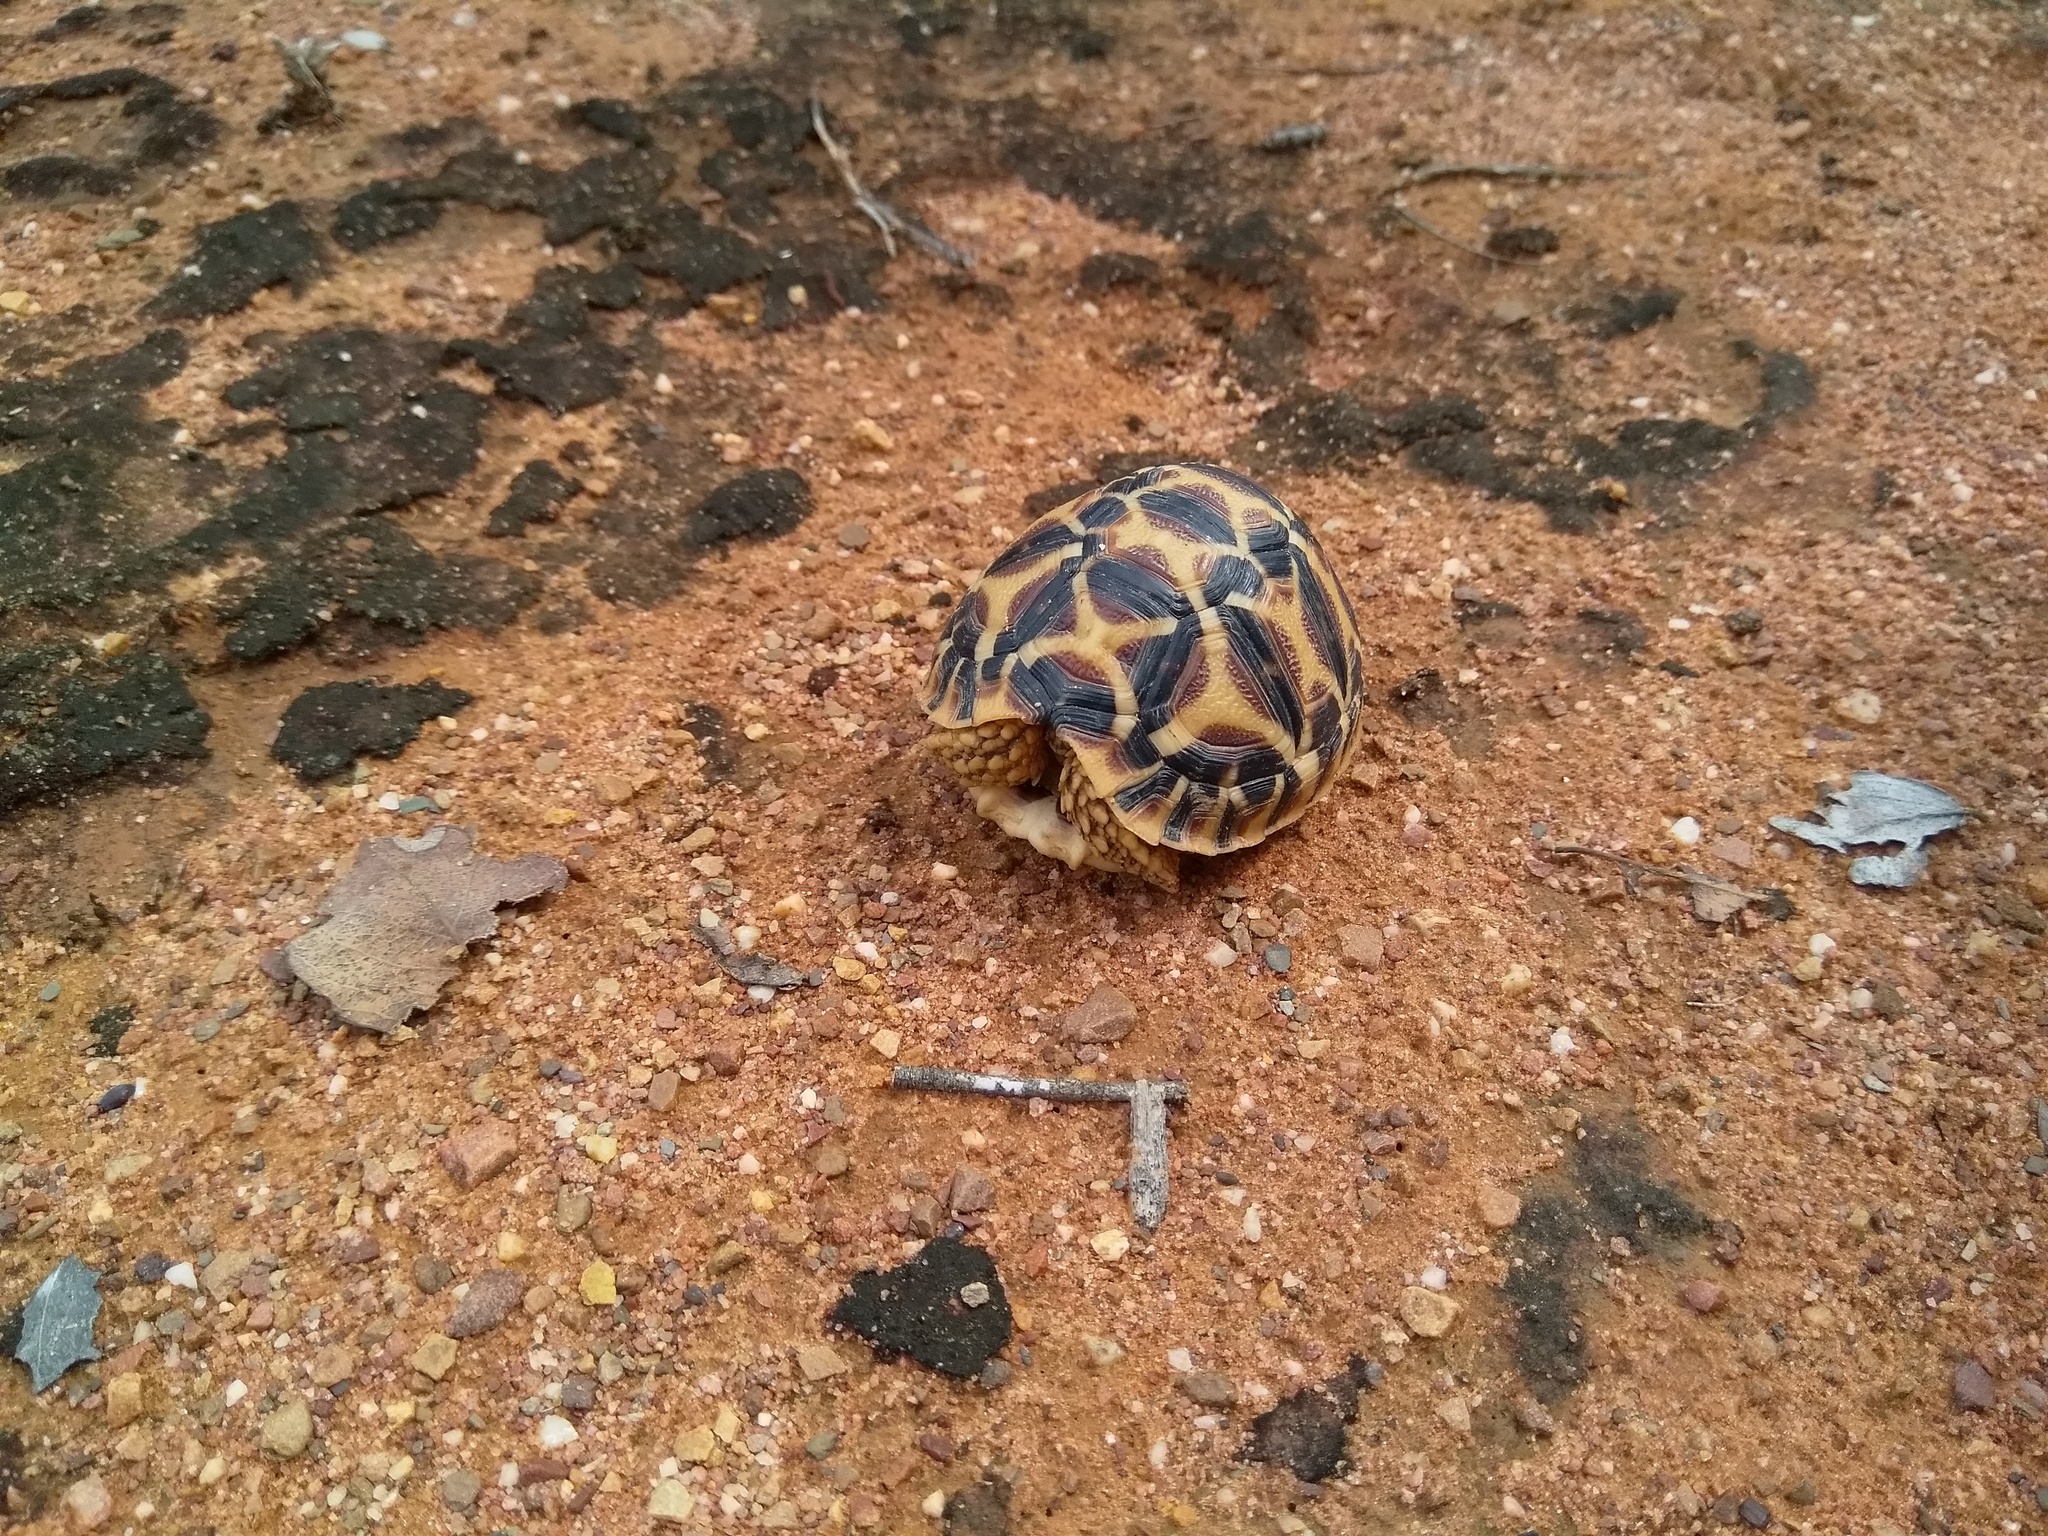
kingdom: Animalia
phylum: Chordata
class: Testudines
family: Testudinidae
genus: Geochelone
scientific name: Geochelone elegans
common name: Indian star tortoise
